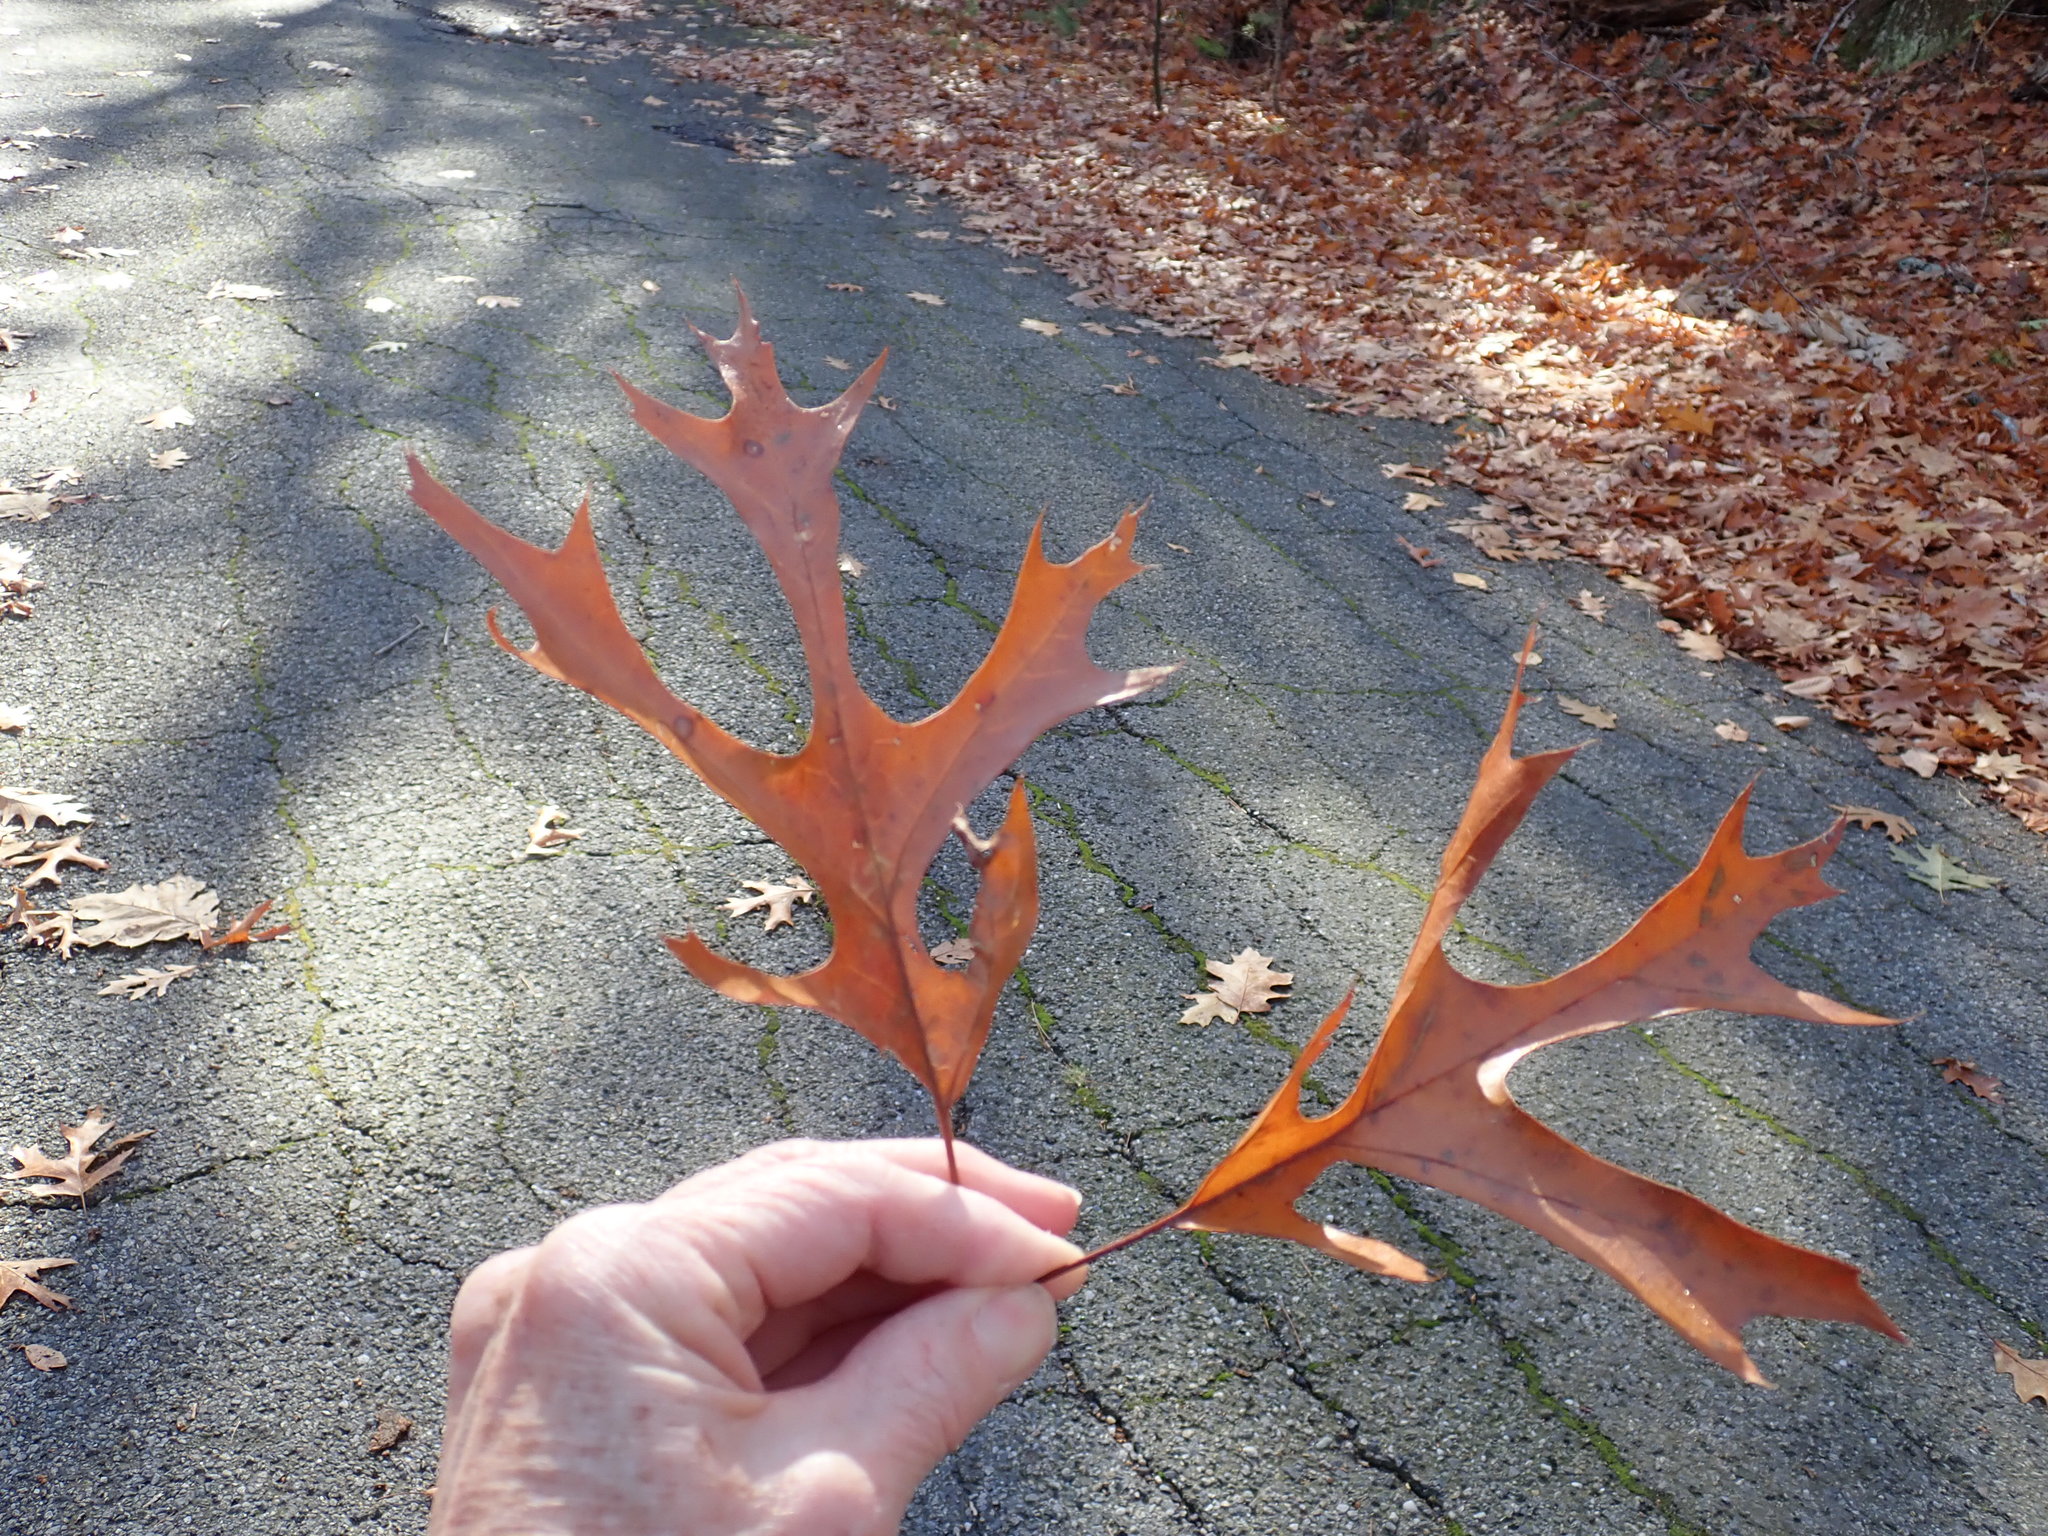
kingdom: Plantae
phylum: Tracheophyta
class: Magnoliopsida
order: Fagales
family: Fagaceae
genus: Quercus
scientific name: Quercus coccinea
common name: Scarlet oak
